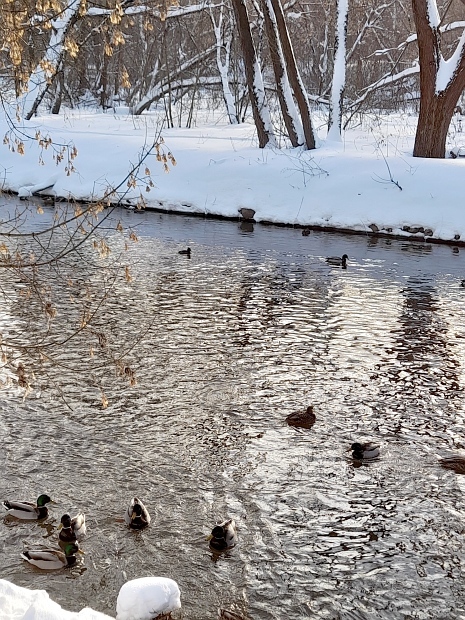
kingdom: Animalia
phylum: Chordata
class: Aves
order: Anseriformes
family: Anatidae
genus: Anas
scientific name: Anas platyrhynchos
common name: Mallard
